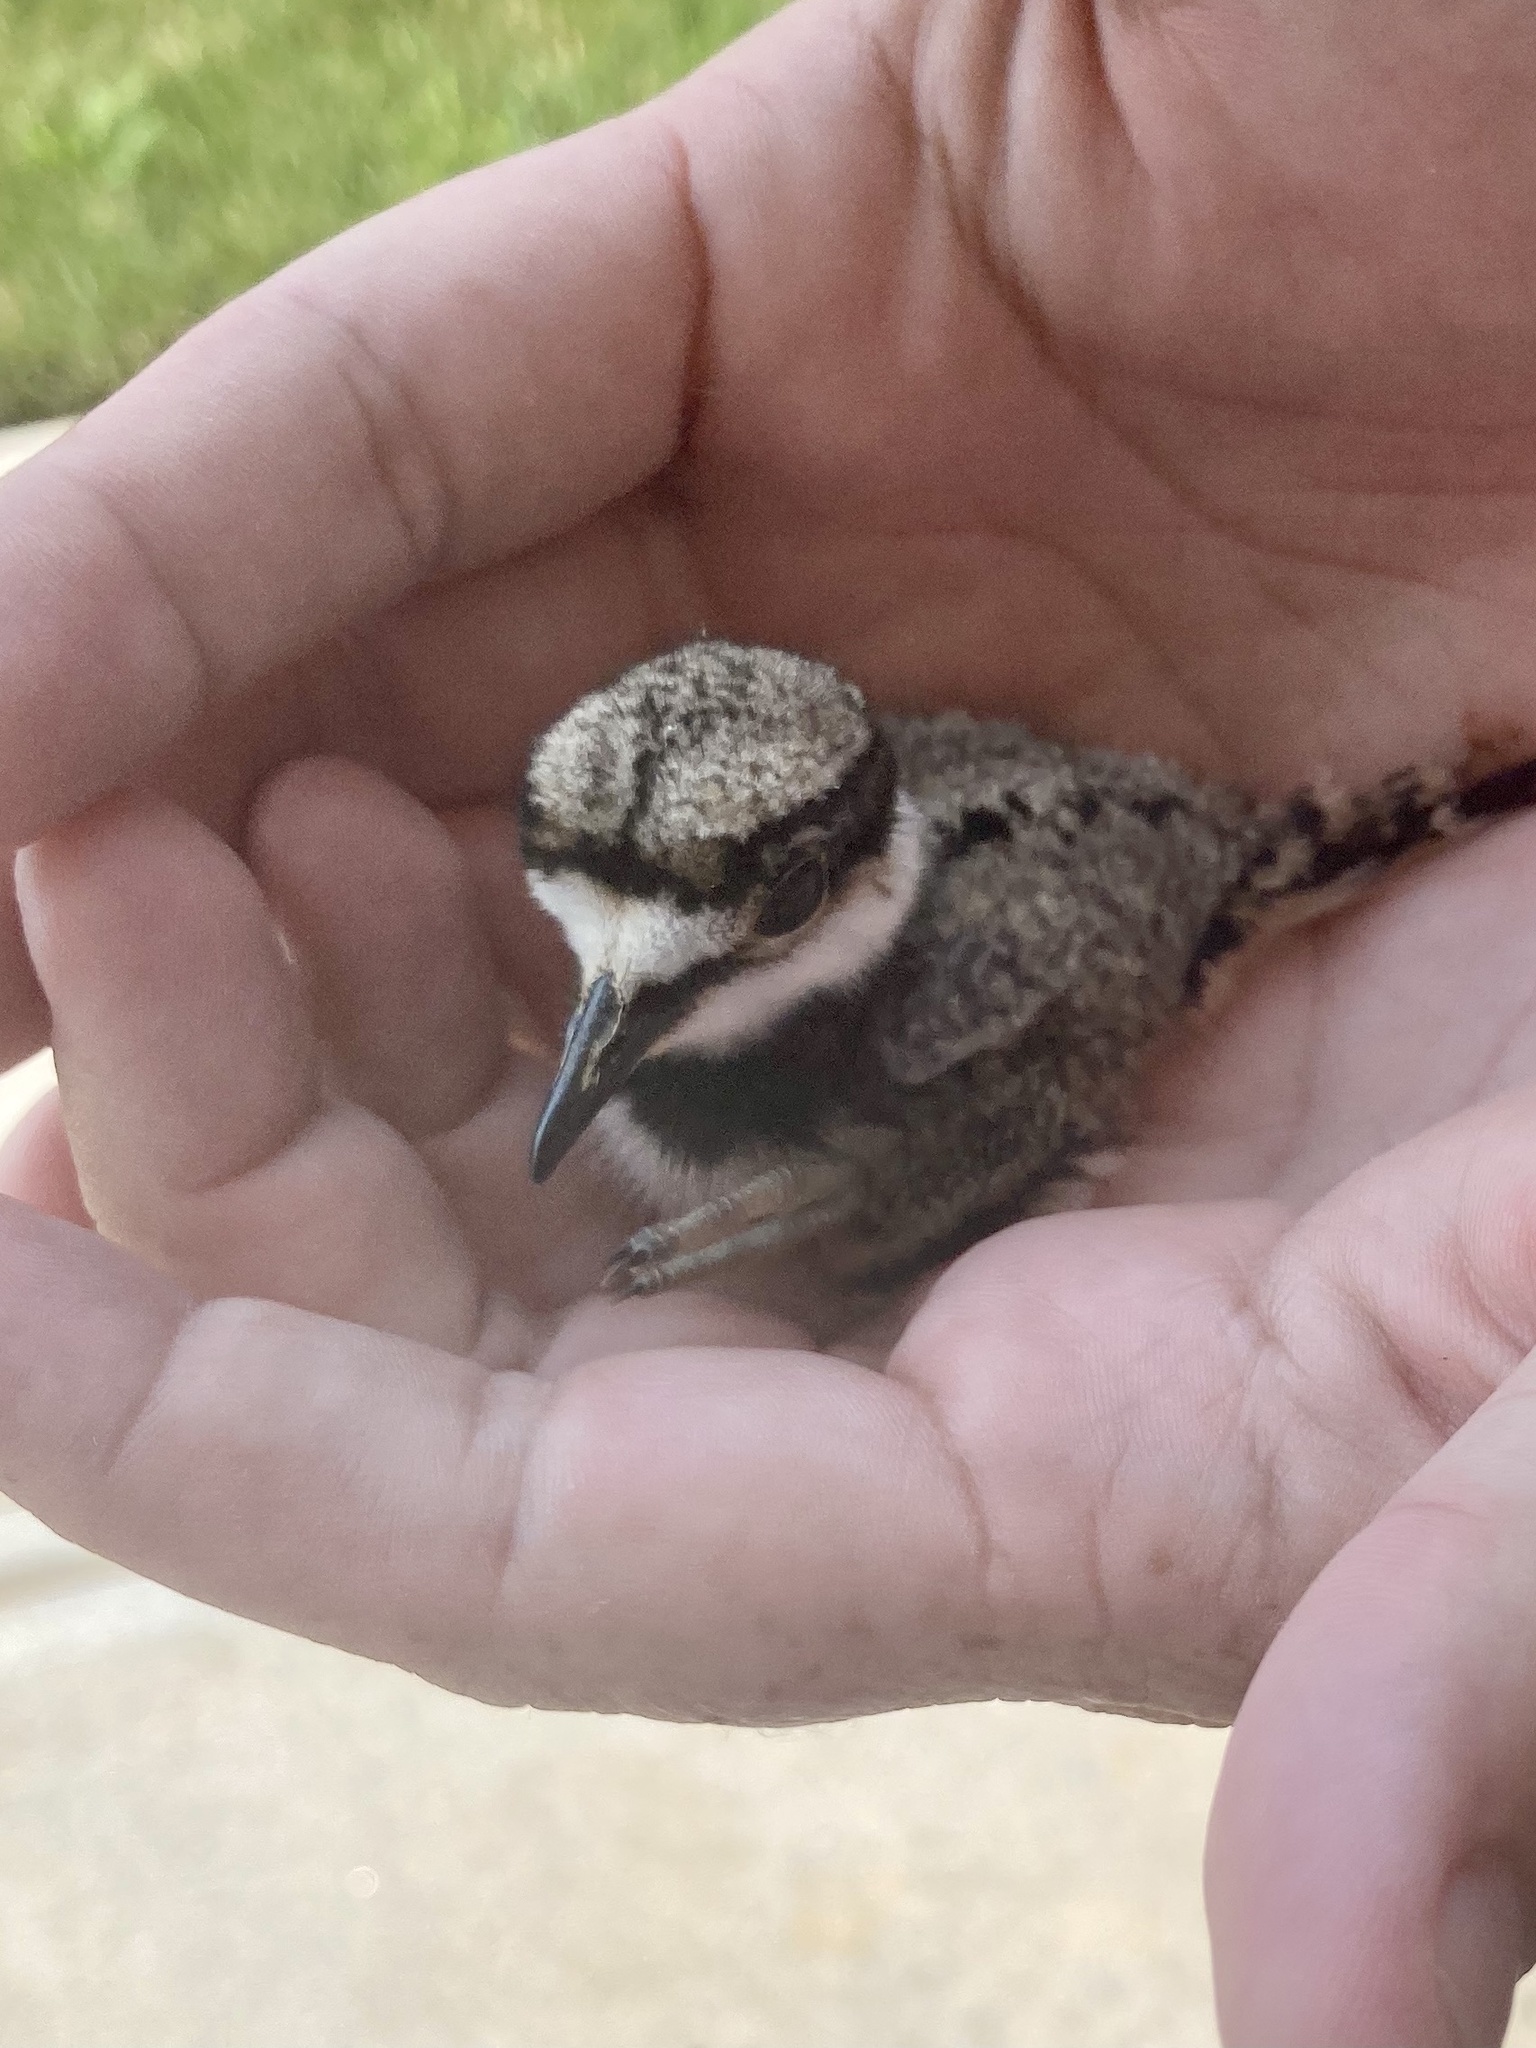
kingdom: Animalia
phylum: Chordata
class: Aves
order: Charadriiformes
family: Charadriidae
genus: Charadrius
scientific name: Charadrius vociferus
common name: Killdeer
